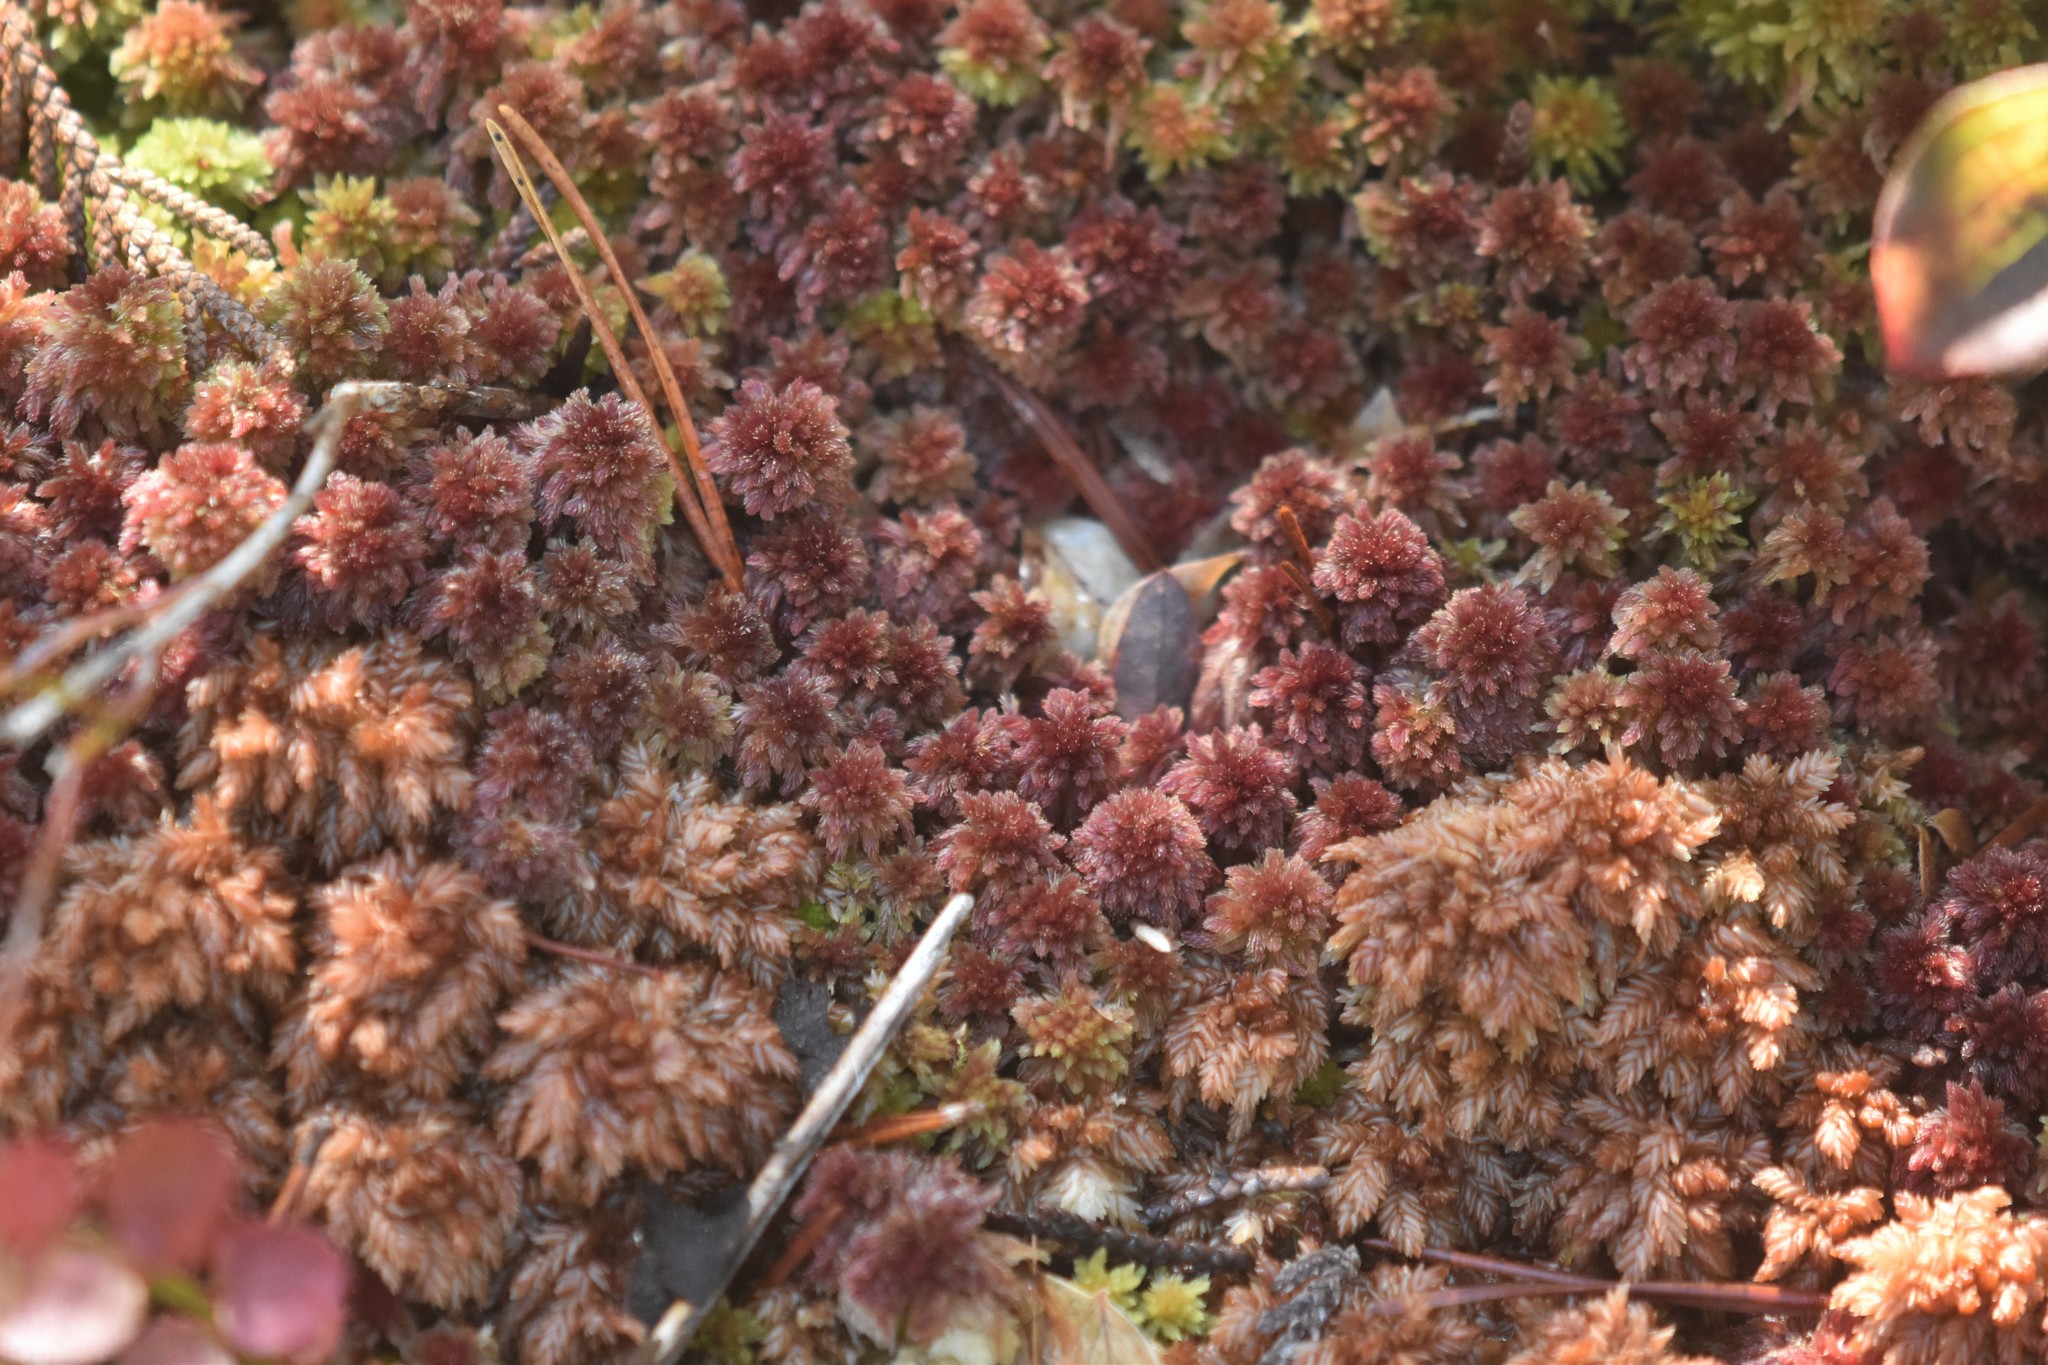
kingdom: Plantae
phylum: Bryophyta
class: Sphagnopsida
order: Sphagnales
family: Sphagnaceae
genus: Sphagnum
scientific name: Sphagnum capillifolium
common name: Small red peat moss
